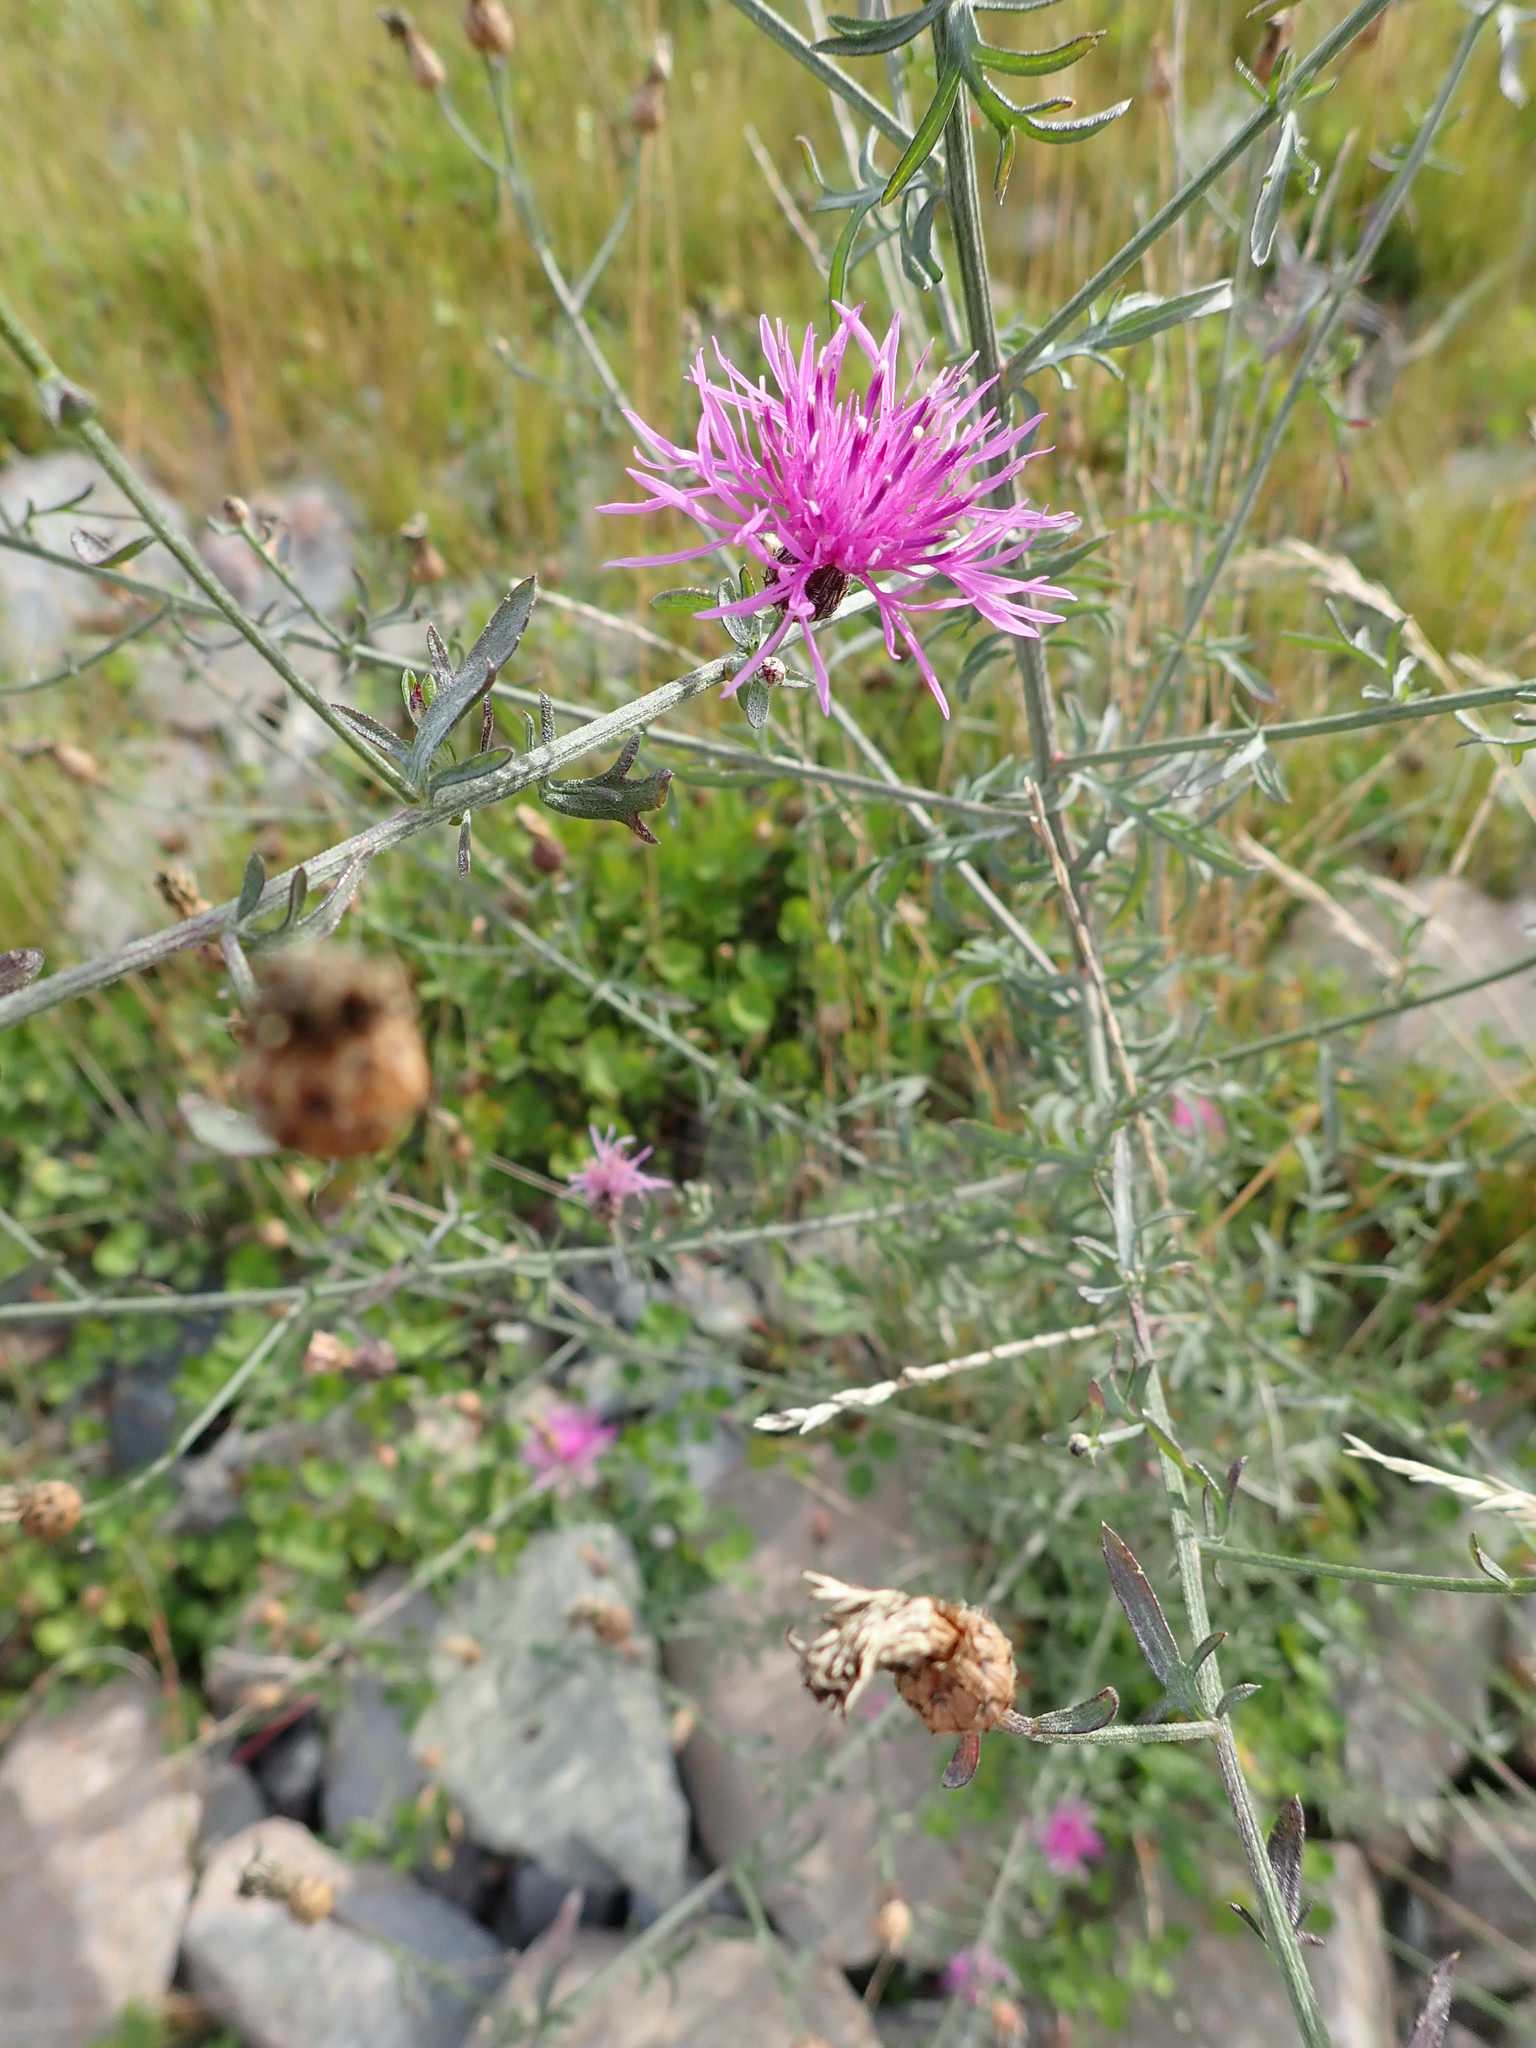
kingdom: Plantae
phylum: Tracheophyta
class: Magnoliopsida
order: Asterales
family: Asteraceae
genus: Centaurea
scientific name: Centaurea stoebe
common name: Spotted knapweed
